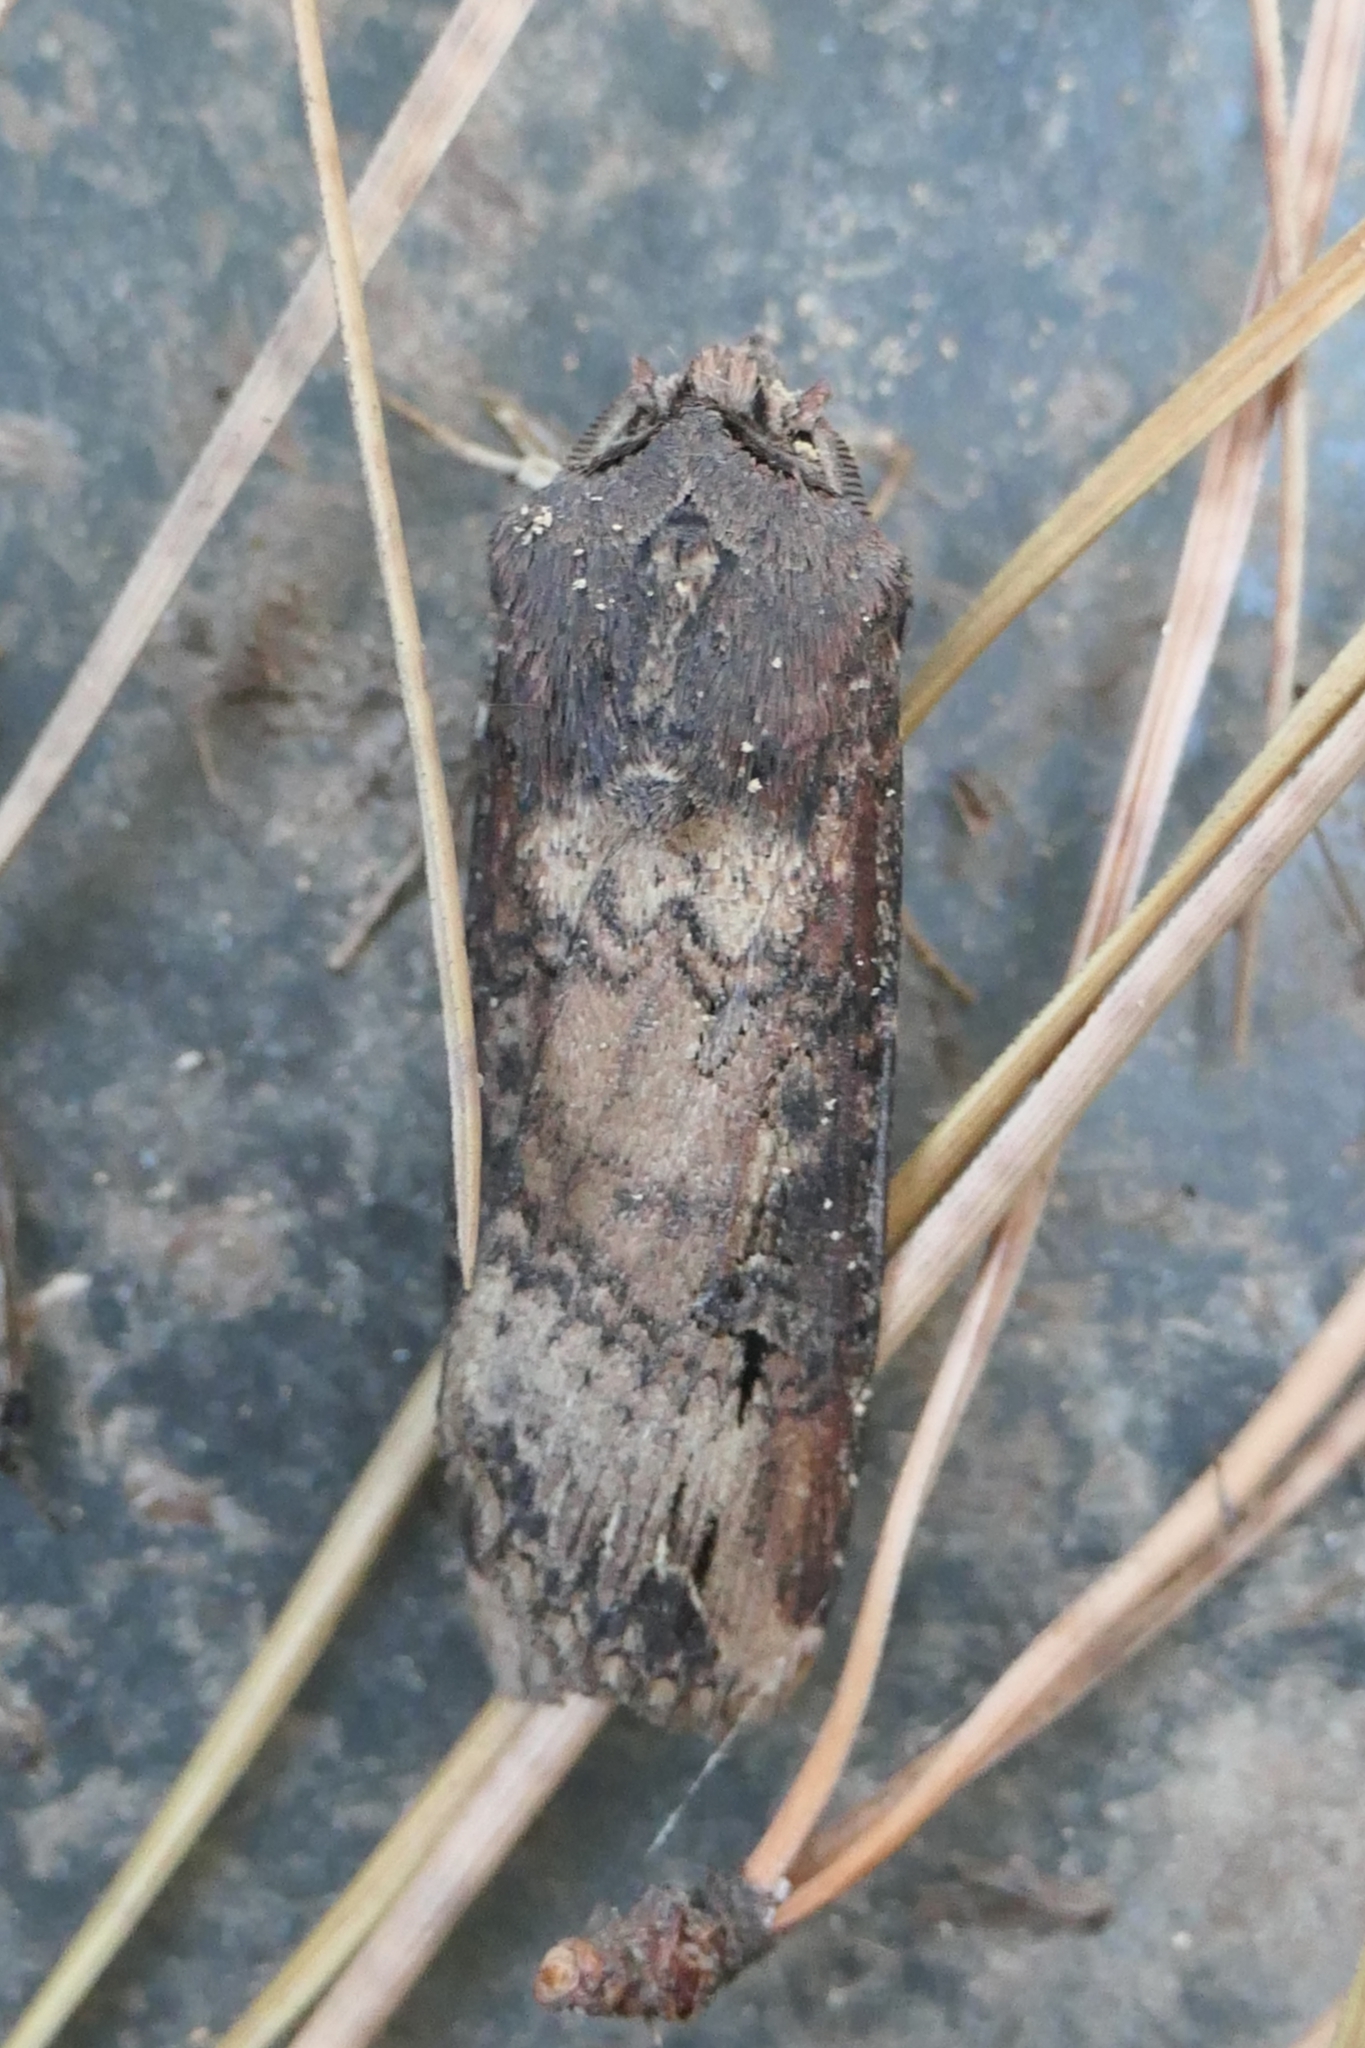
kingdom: Animalia
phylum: Arthropoda
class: Insecta
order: Lepidoptera
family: Noctuidae
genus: Agrotis
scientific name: Agrotis ipsilon
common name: Dark sword-grass
